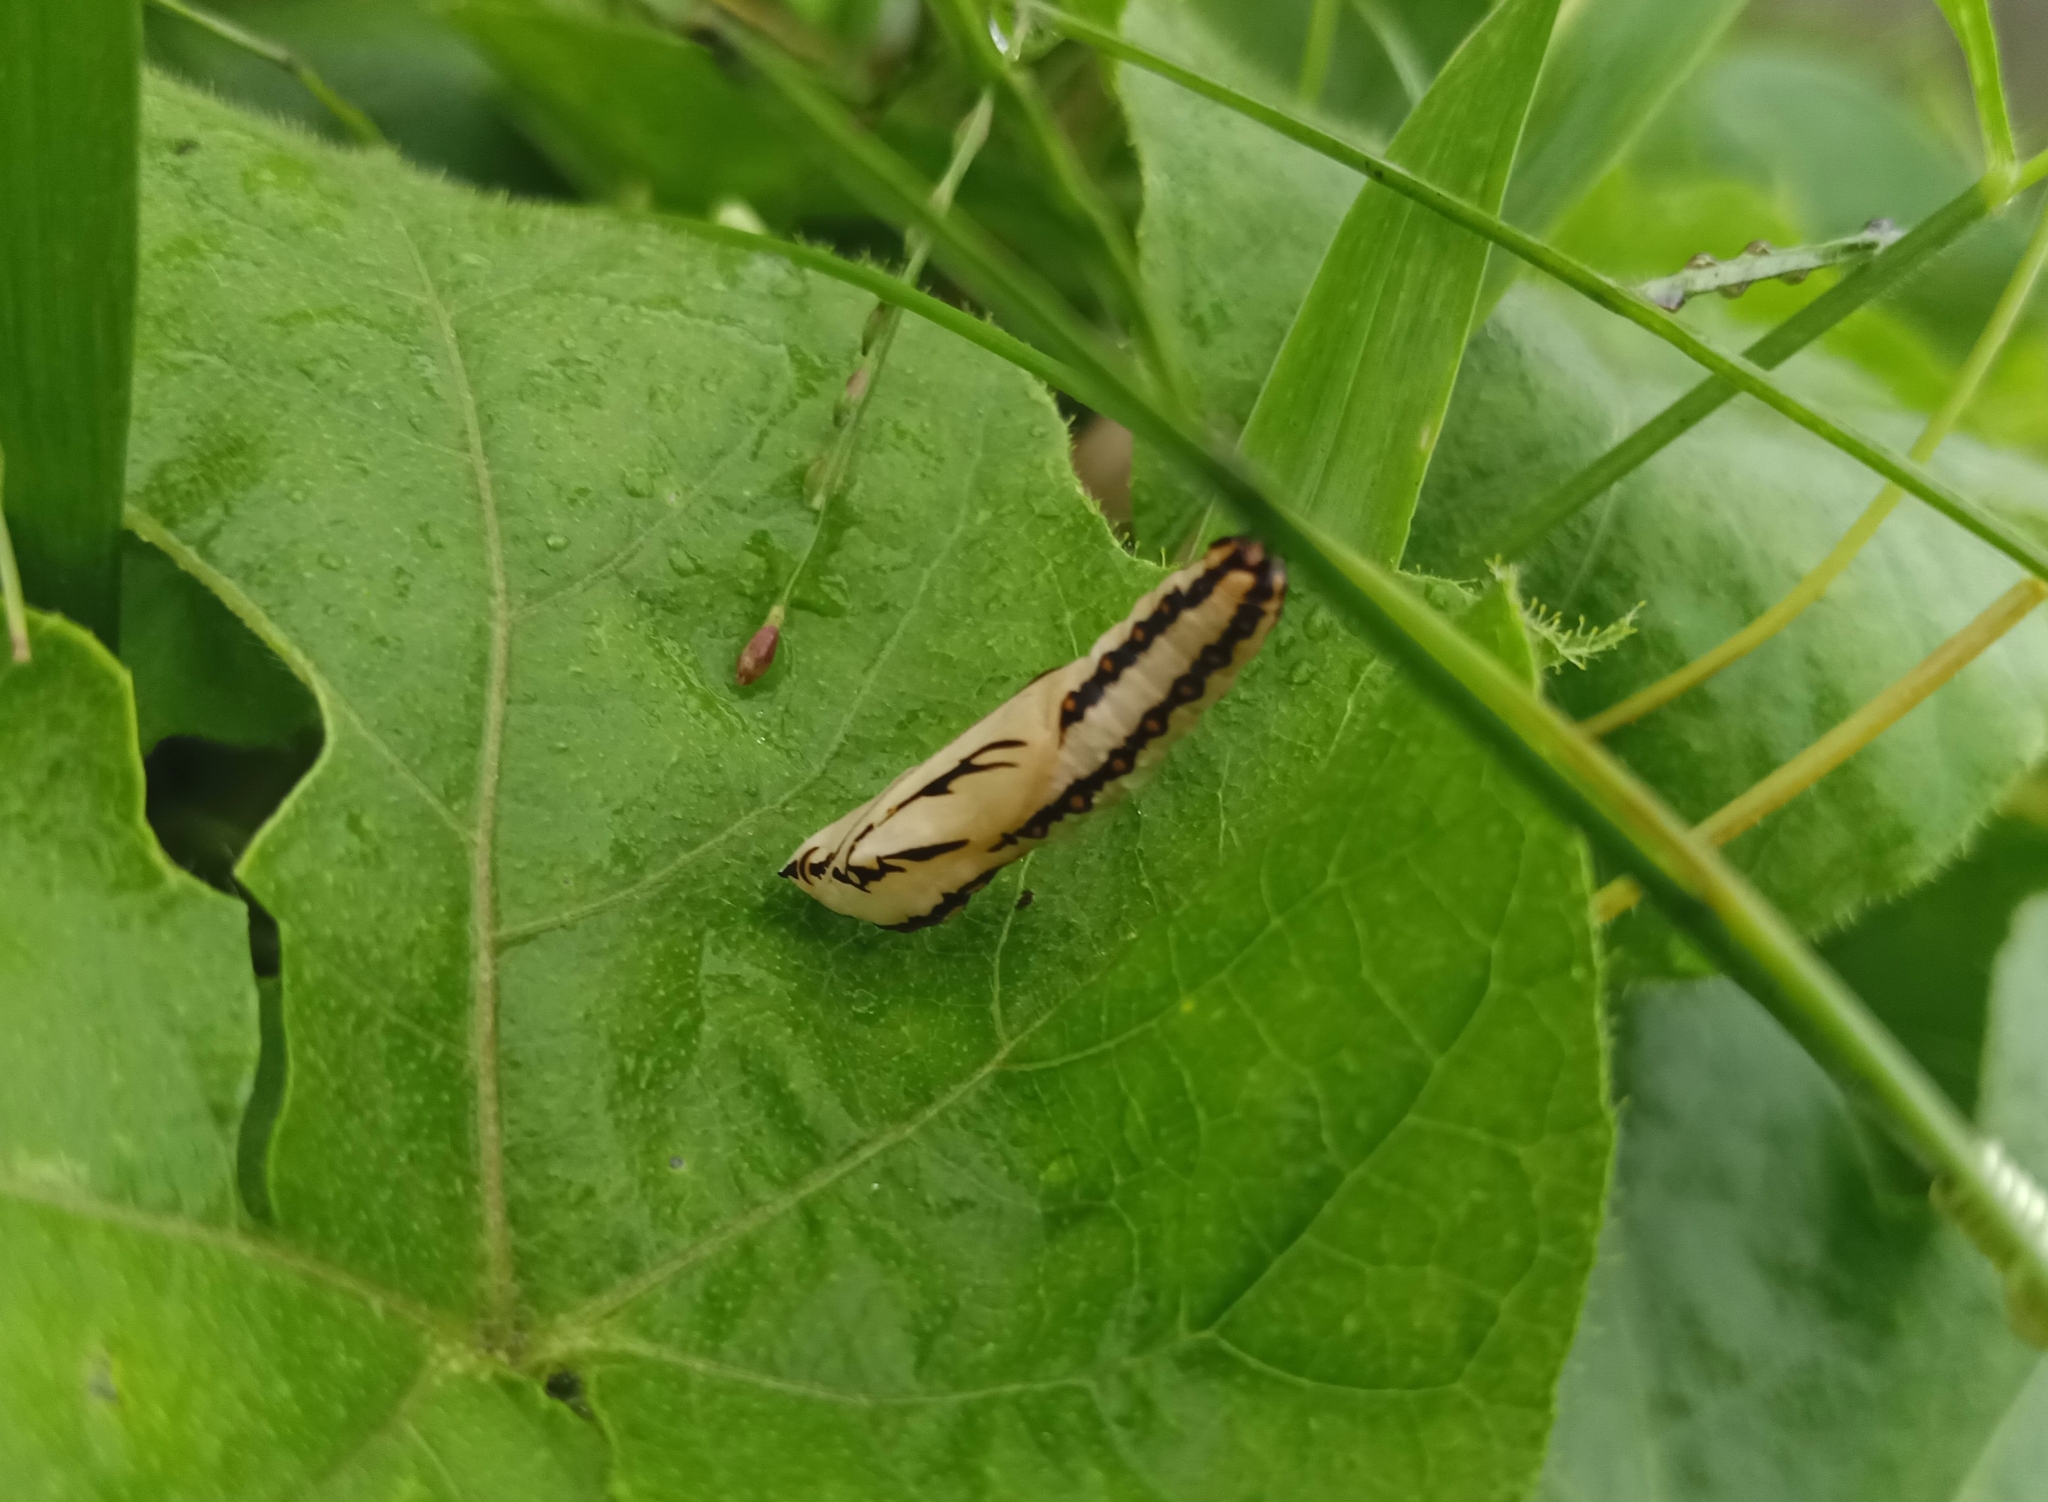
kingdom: Animalia
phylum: Arthropoda
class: Insecta
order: Lepidoptera
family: Nymphalidae
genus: Acraea
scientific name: Acraea terpsicore
